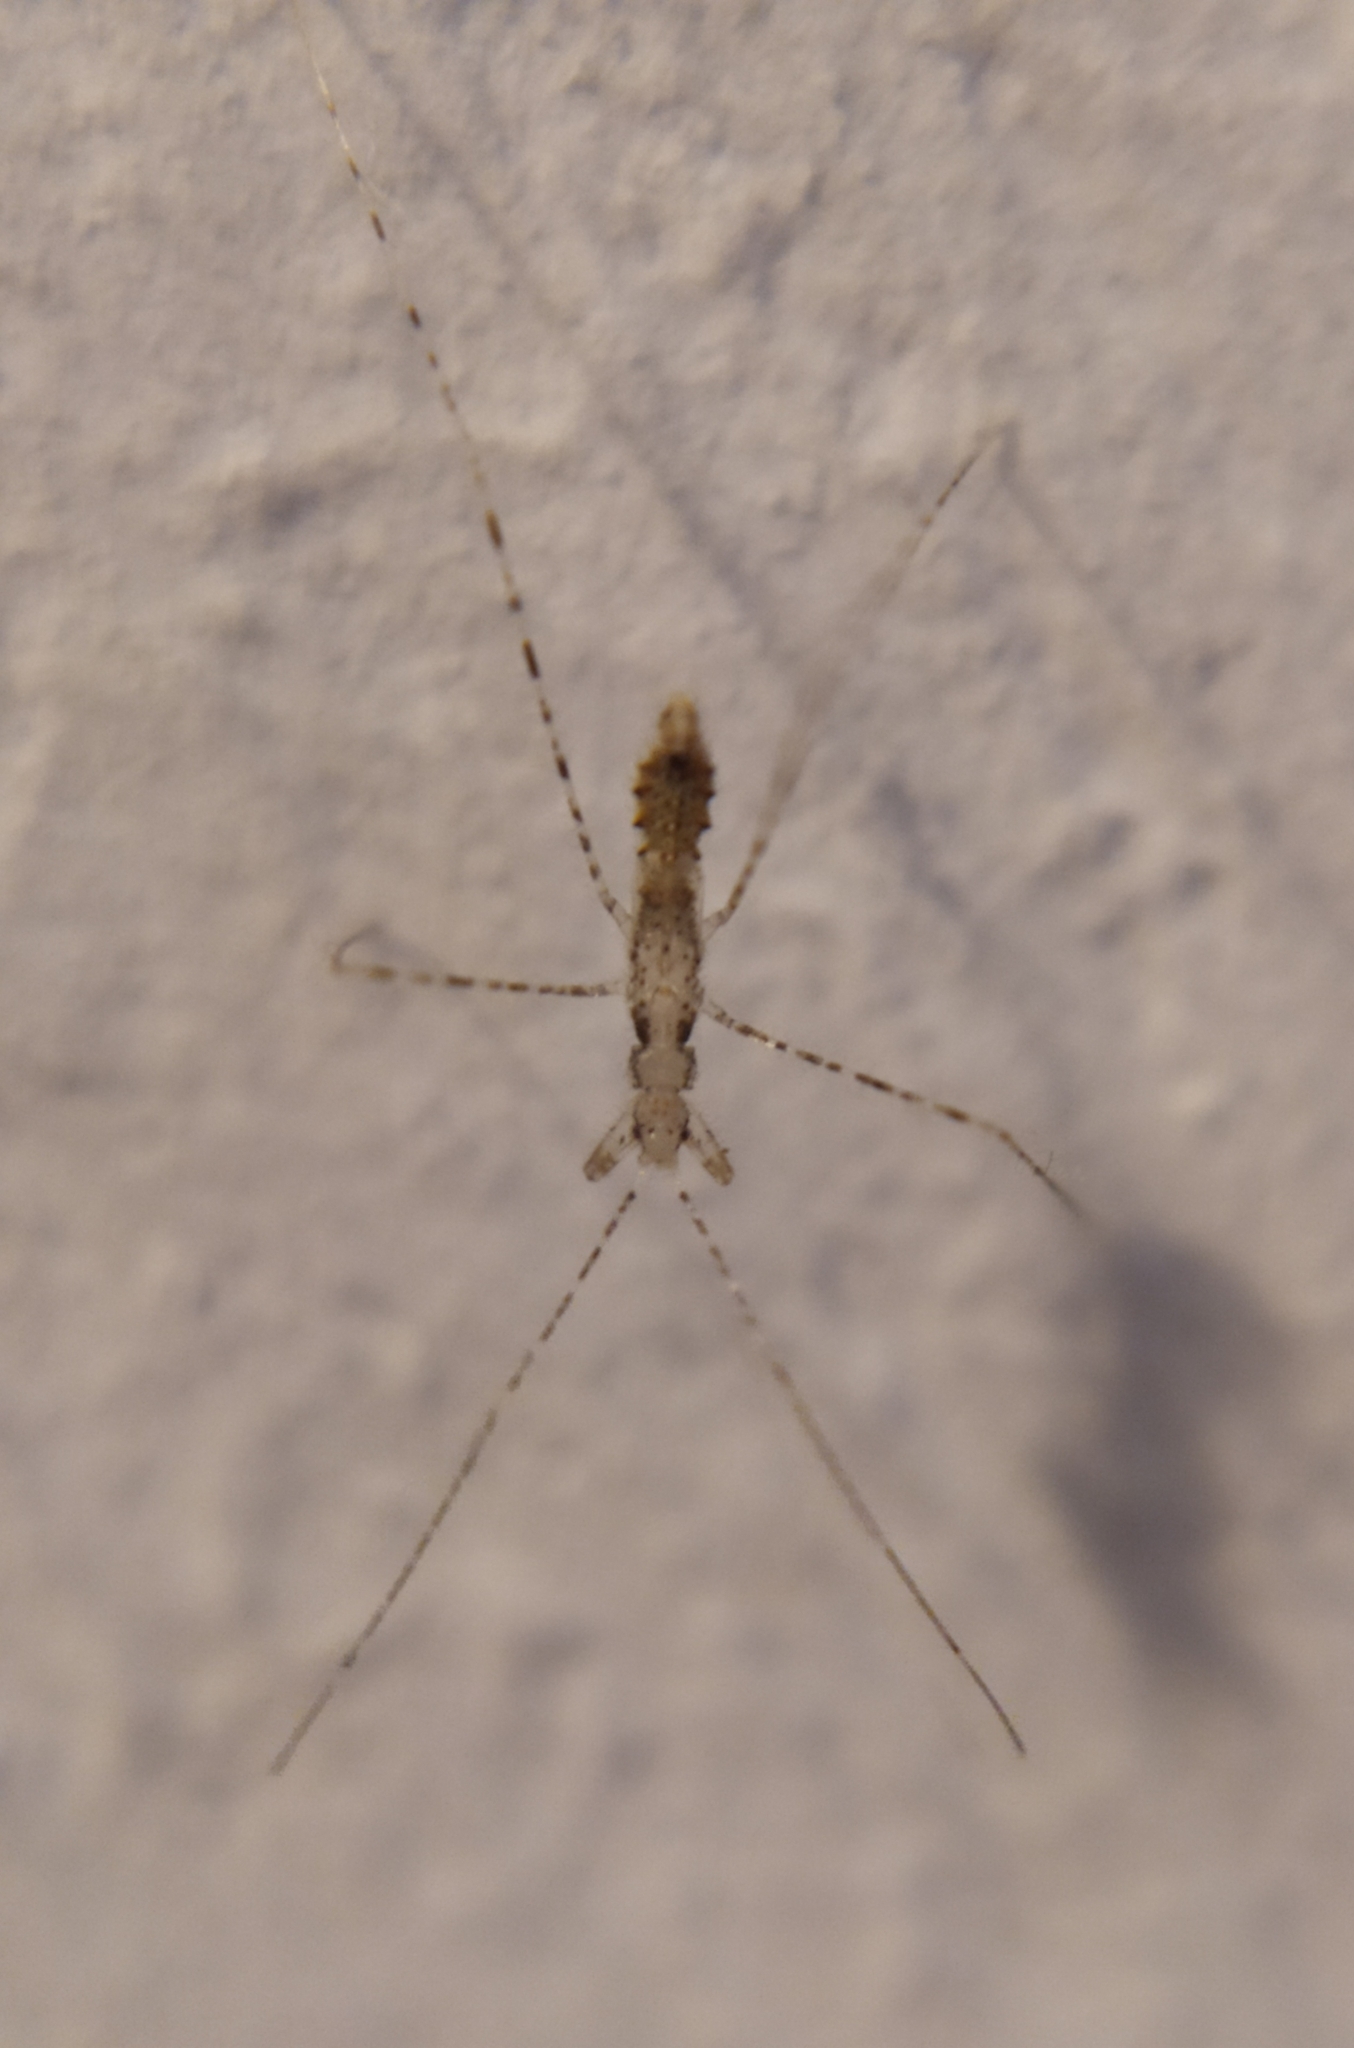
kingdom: Animalia
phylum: Arthropoda
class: Insecta
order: Hemiptera
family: Reduviidae
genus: Empicoris
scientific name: Empicoris culiciformis
